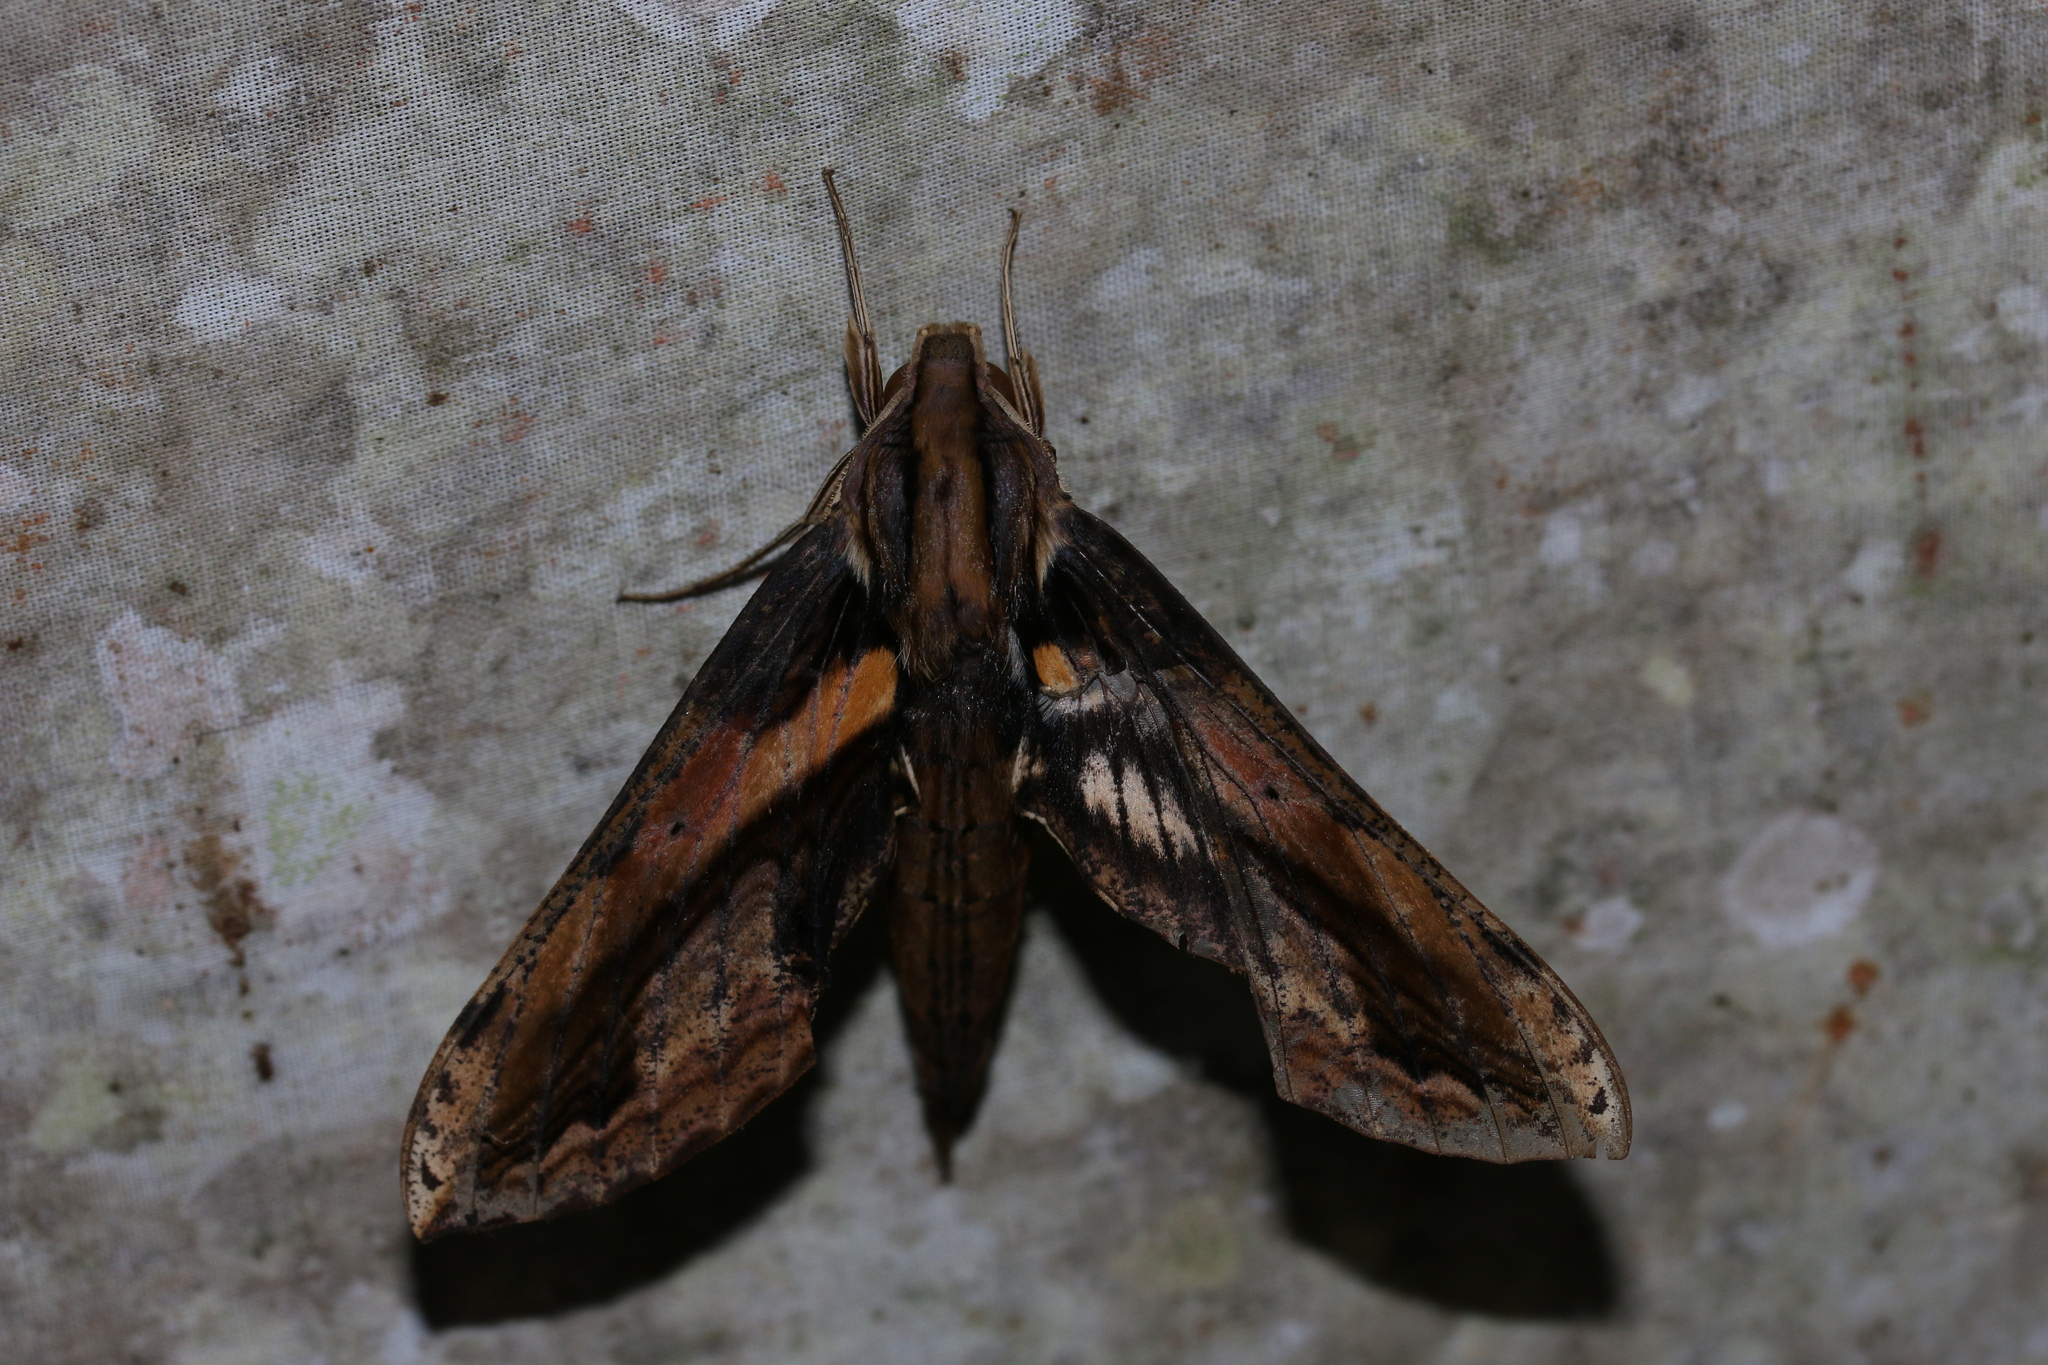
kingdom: Animalia
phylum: Arthropoda
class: Insecta
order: Lepidoptera
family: Sphingidae
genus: Xylophanes
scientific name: Xylophanes ceratomioides
